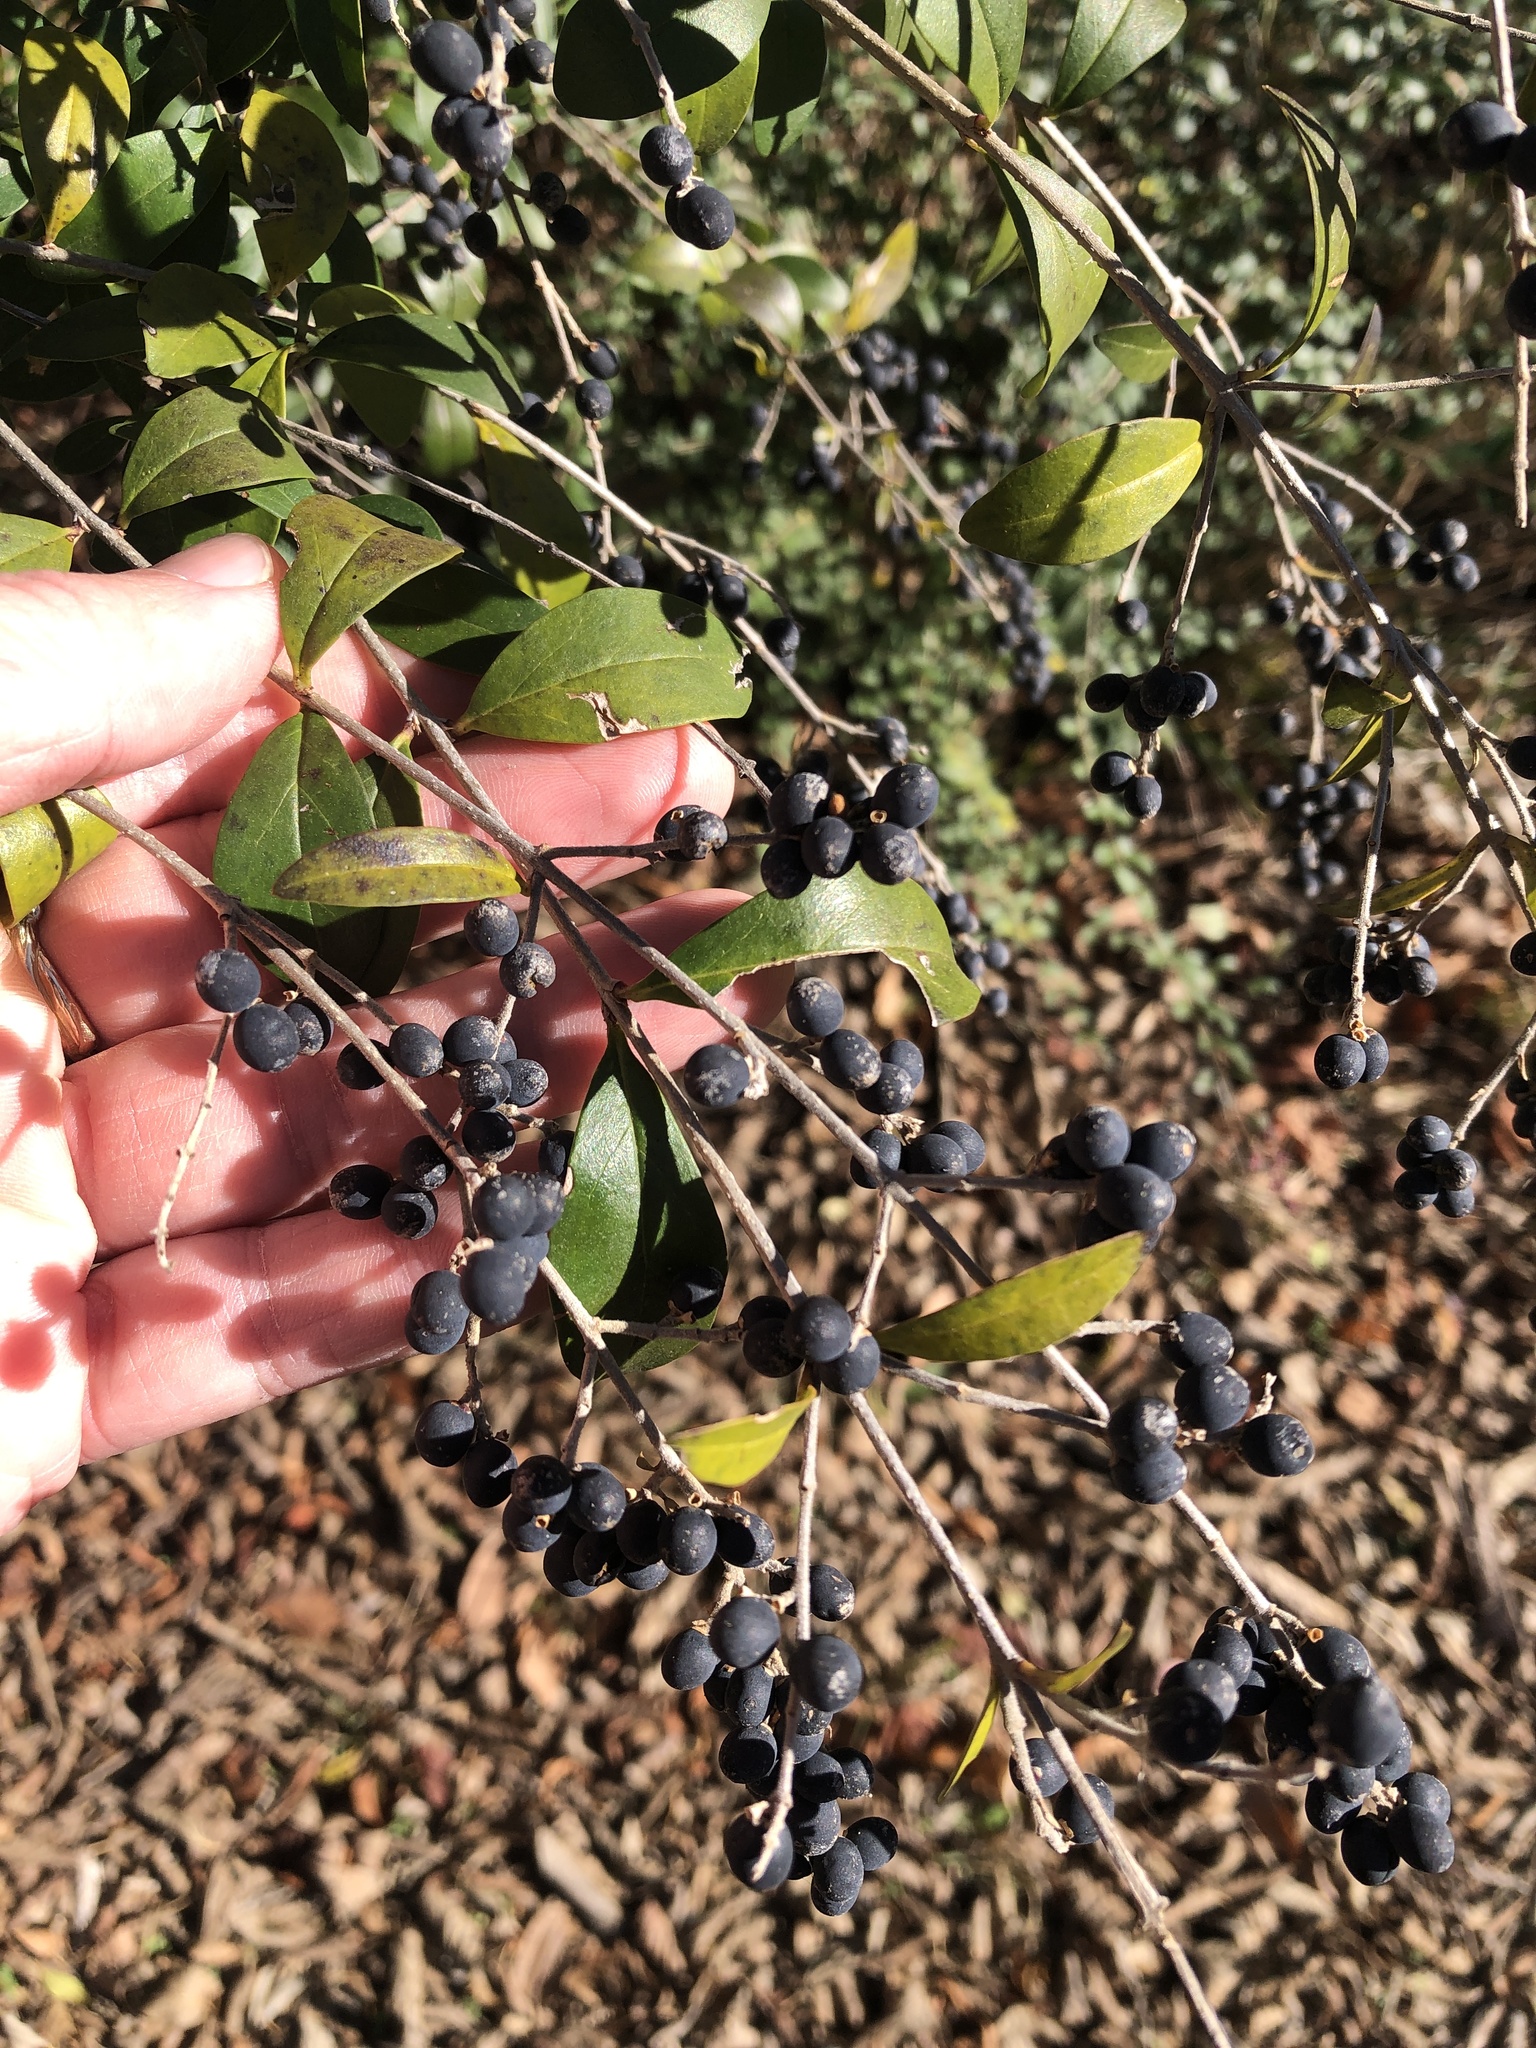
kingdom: Plantae
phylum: Tracheophyta
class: Magnoliopsida
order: Lamiales
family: Oleaceae
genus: Ligustrum
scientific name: Ligustrum quihoui
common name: Waxyleaf privet
